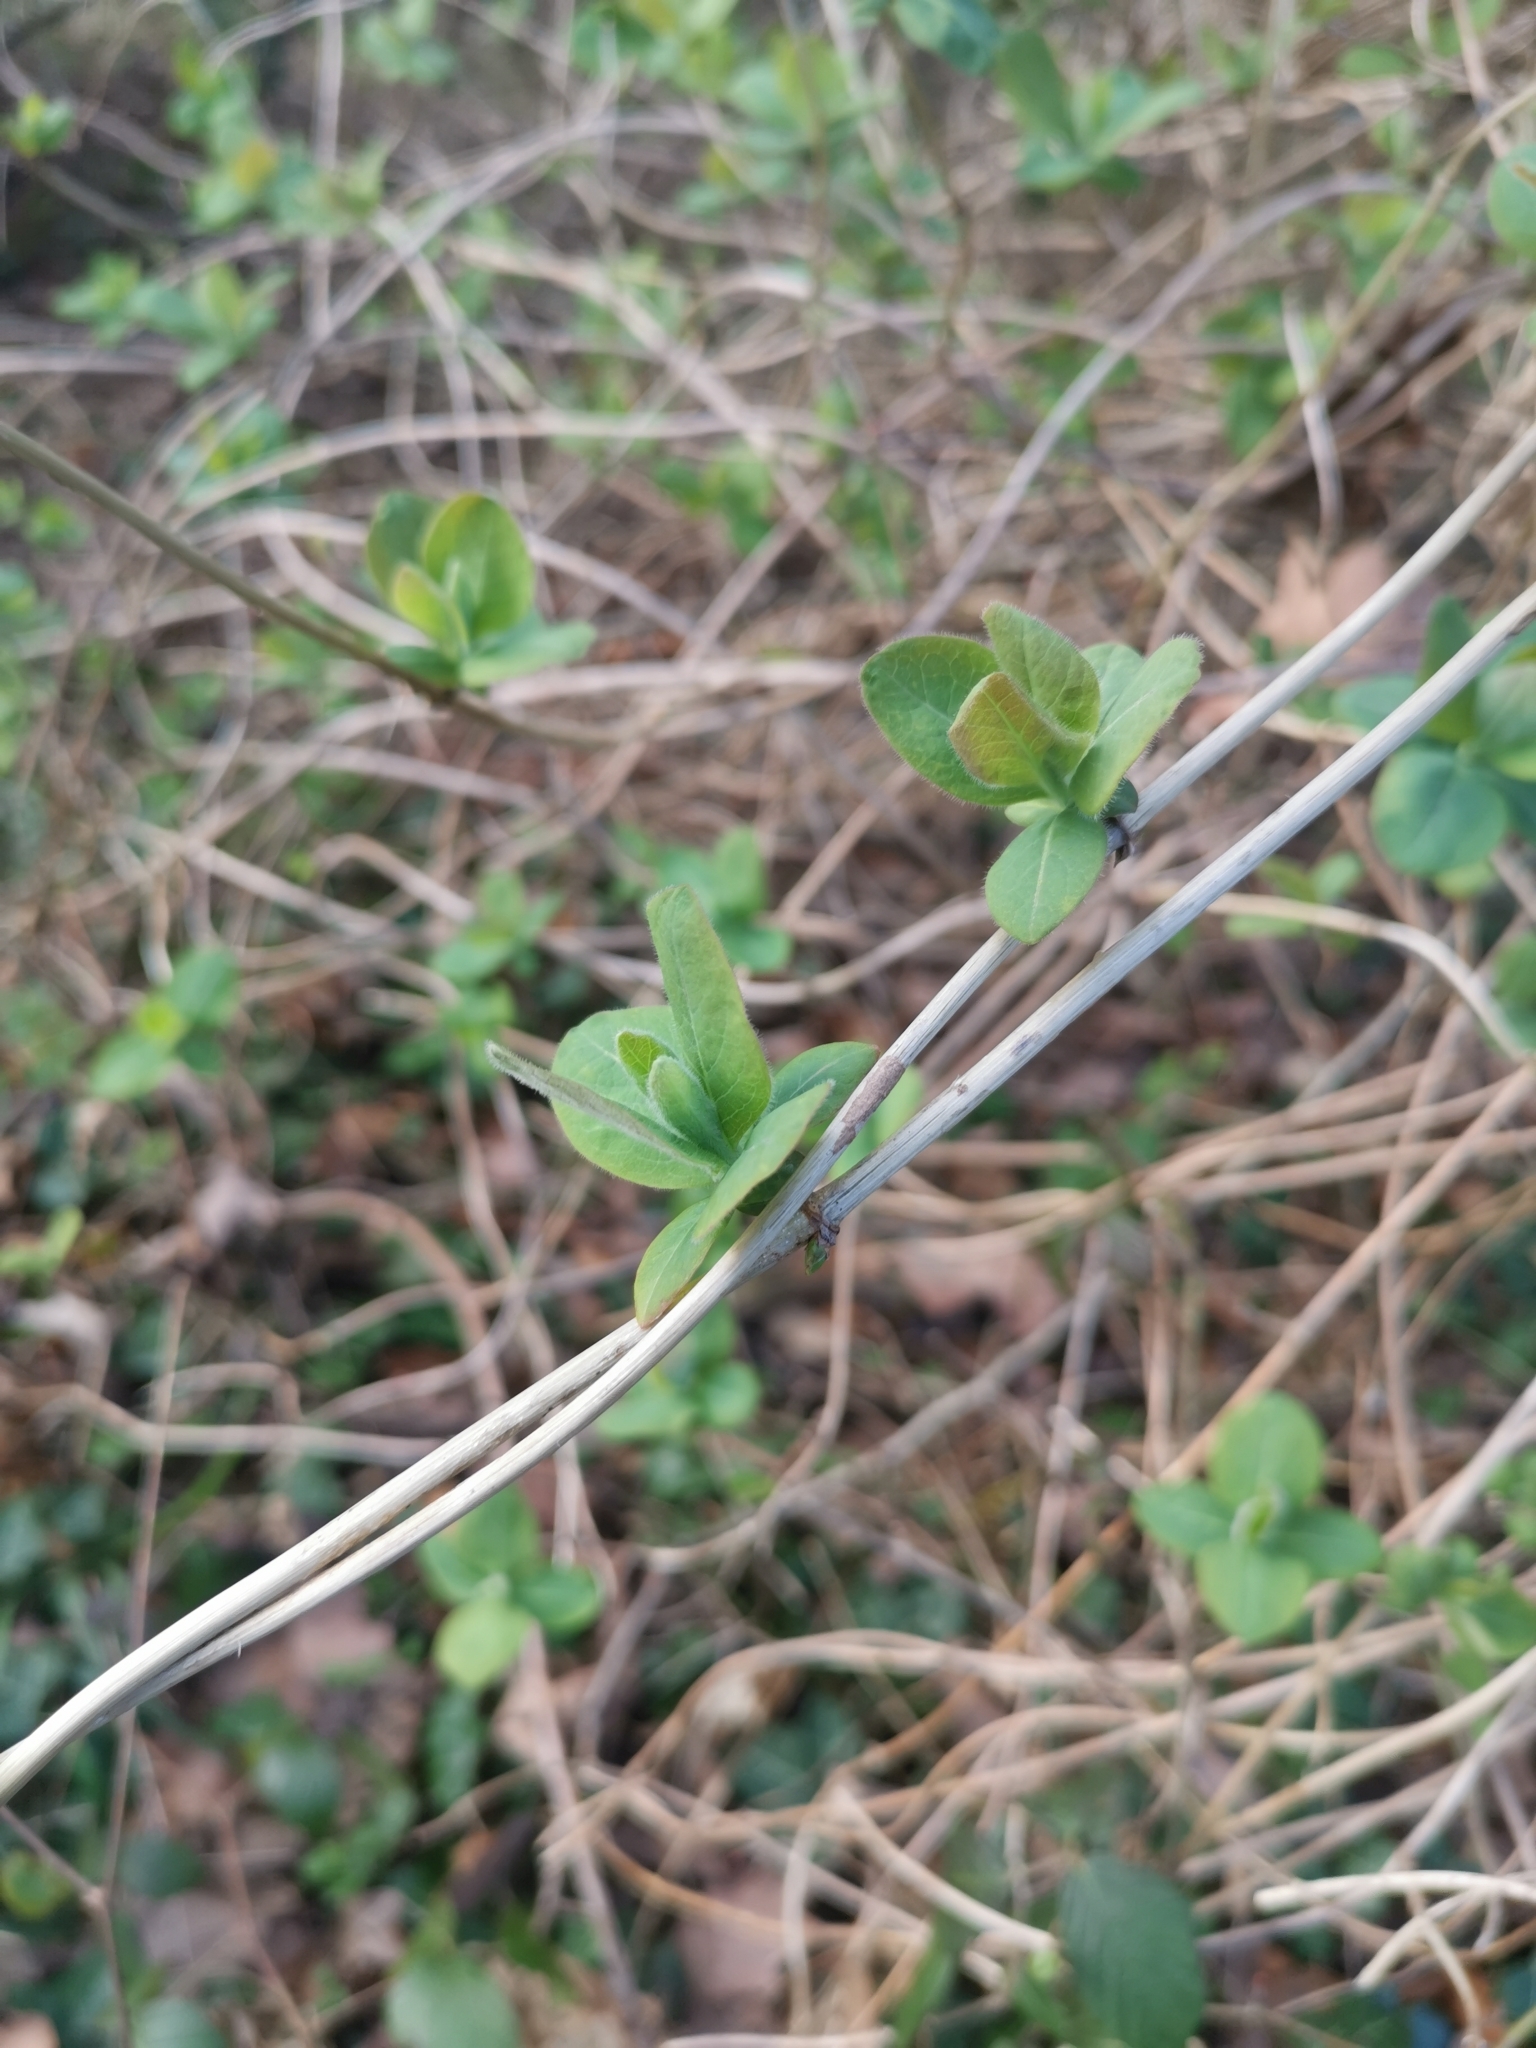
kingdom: Plantae
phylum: Tracheophyta
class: Magnoliopsida
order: Dipsacales
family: Caprifoliaceae
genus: Lonicera
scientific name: Lonicera periclymenum
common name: European honeysuckle
